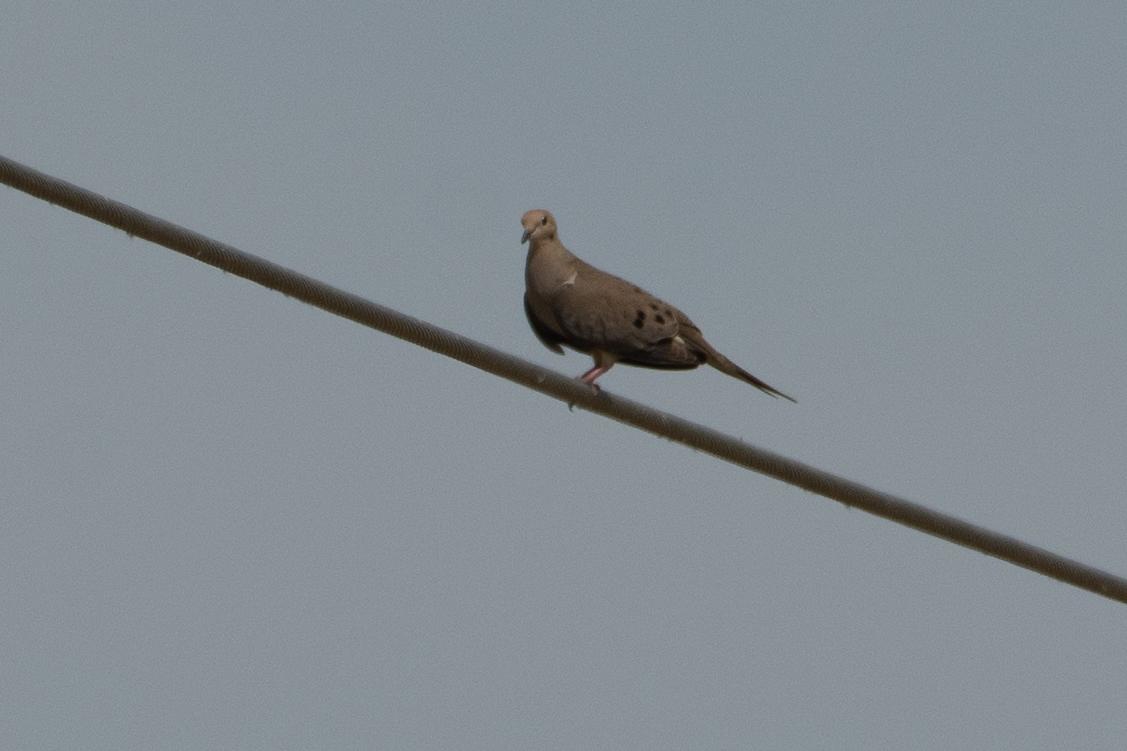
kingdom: Animalia
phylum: Chordata
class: Aves
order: Columbiformes
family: Columbidae
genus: Zenaida
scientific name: Zenaida macroura
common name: Mourning dove
